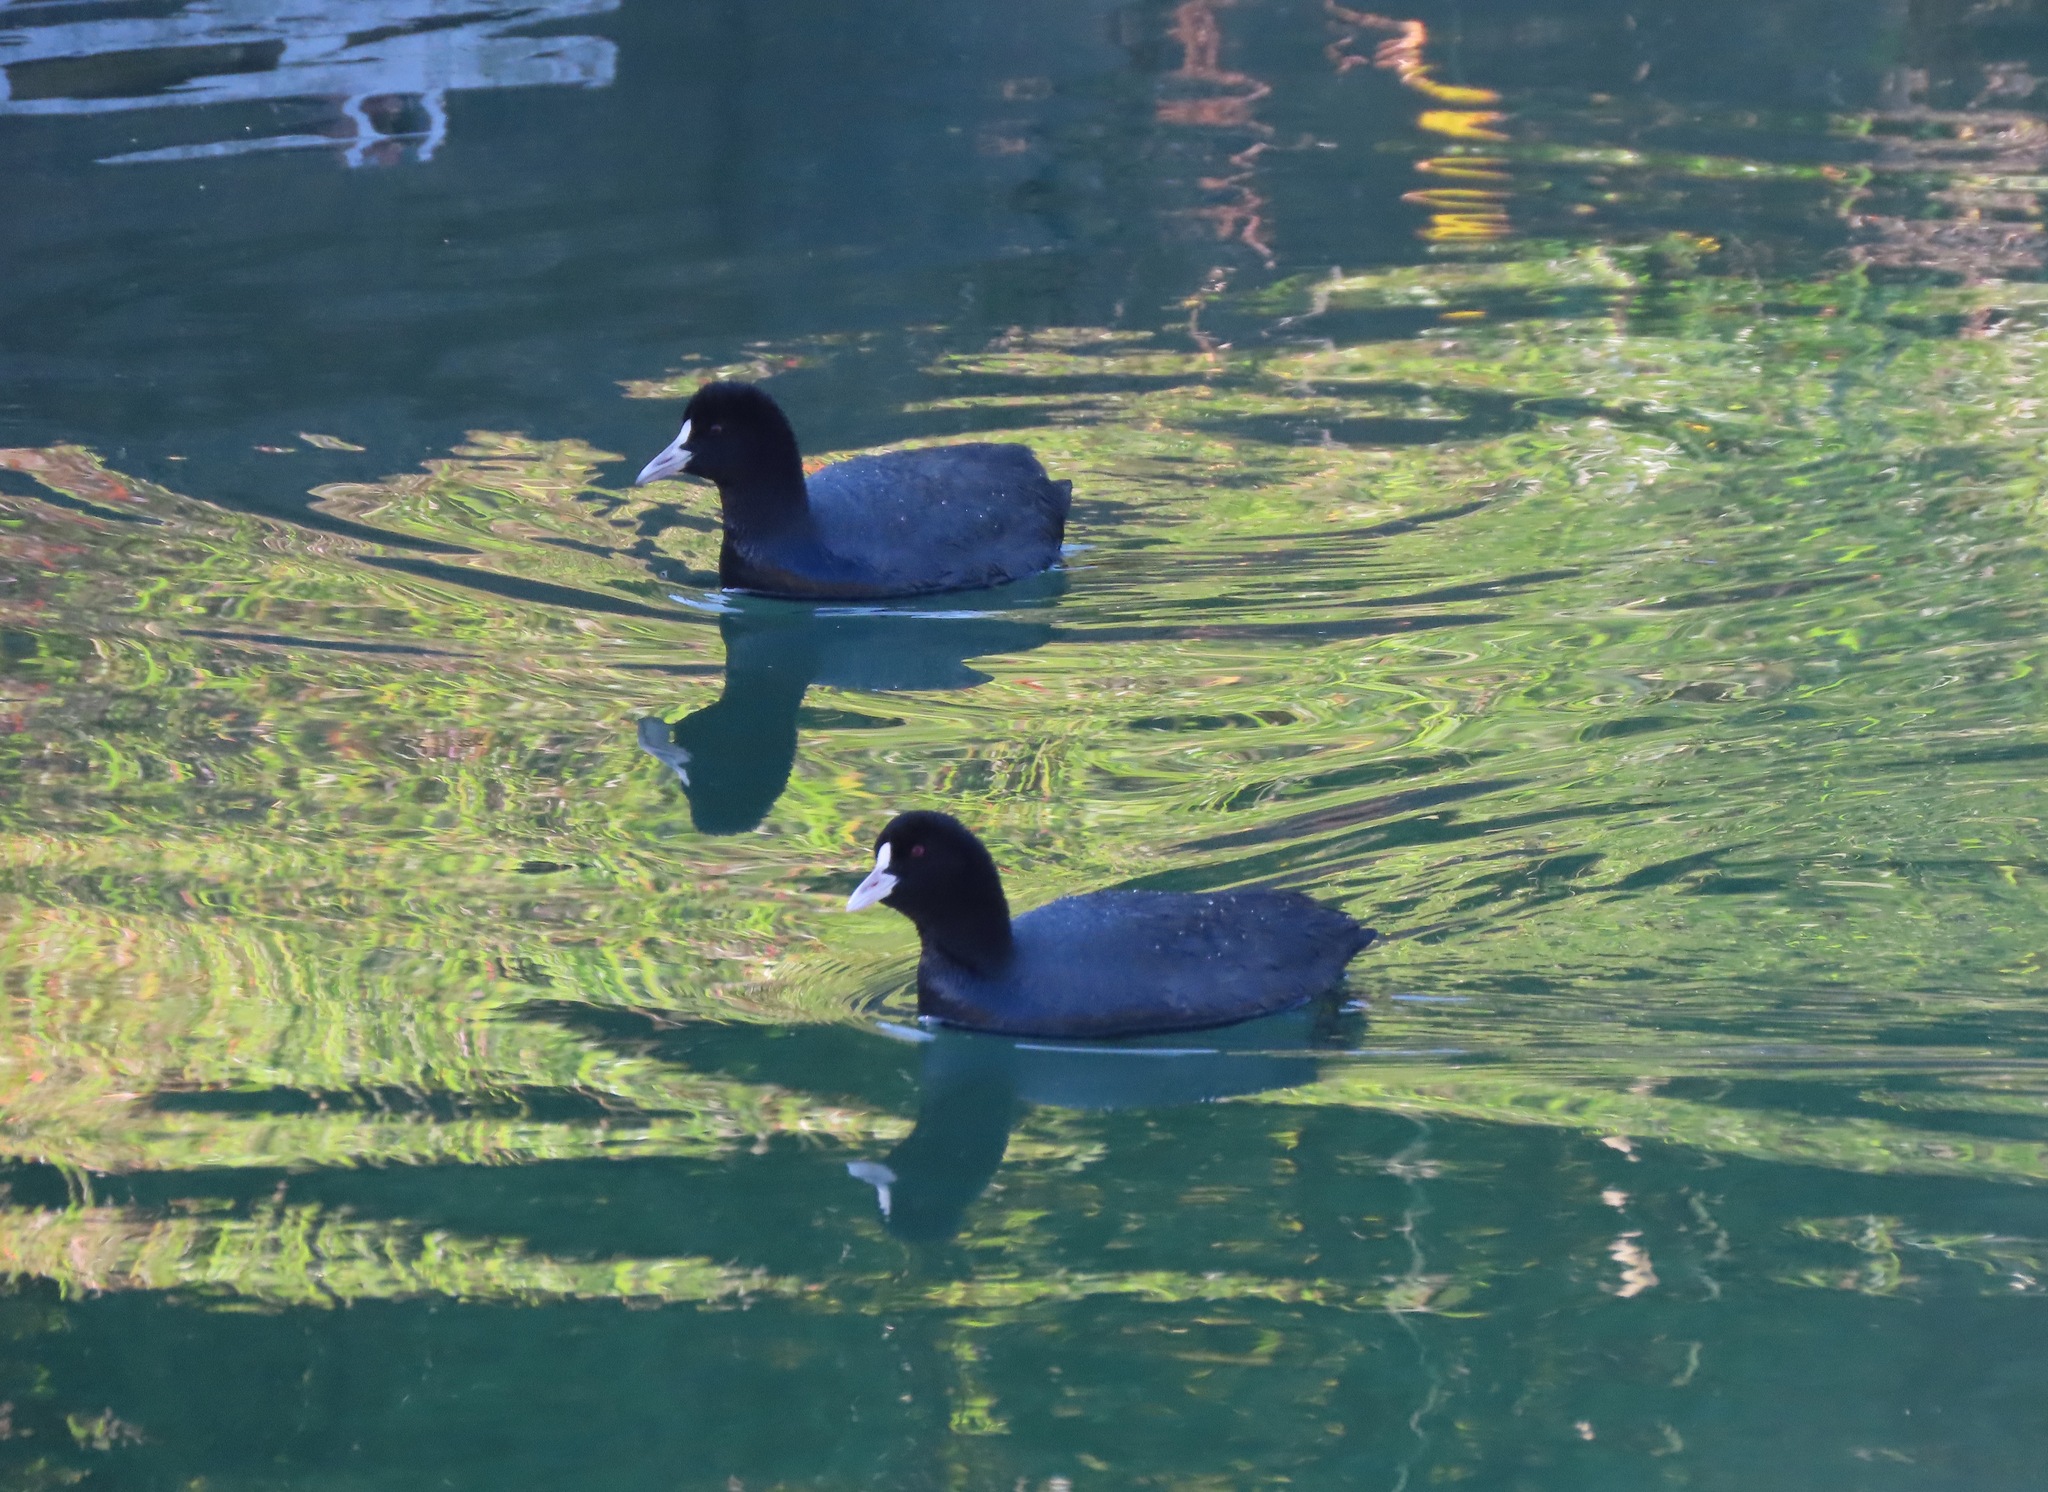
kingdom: Animalia
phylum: Chordata
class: Aves
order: Gruiformes
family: Rallidae
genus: Fulica
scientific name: Fulica atra
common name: Eurasian coot
